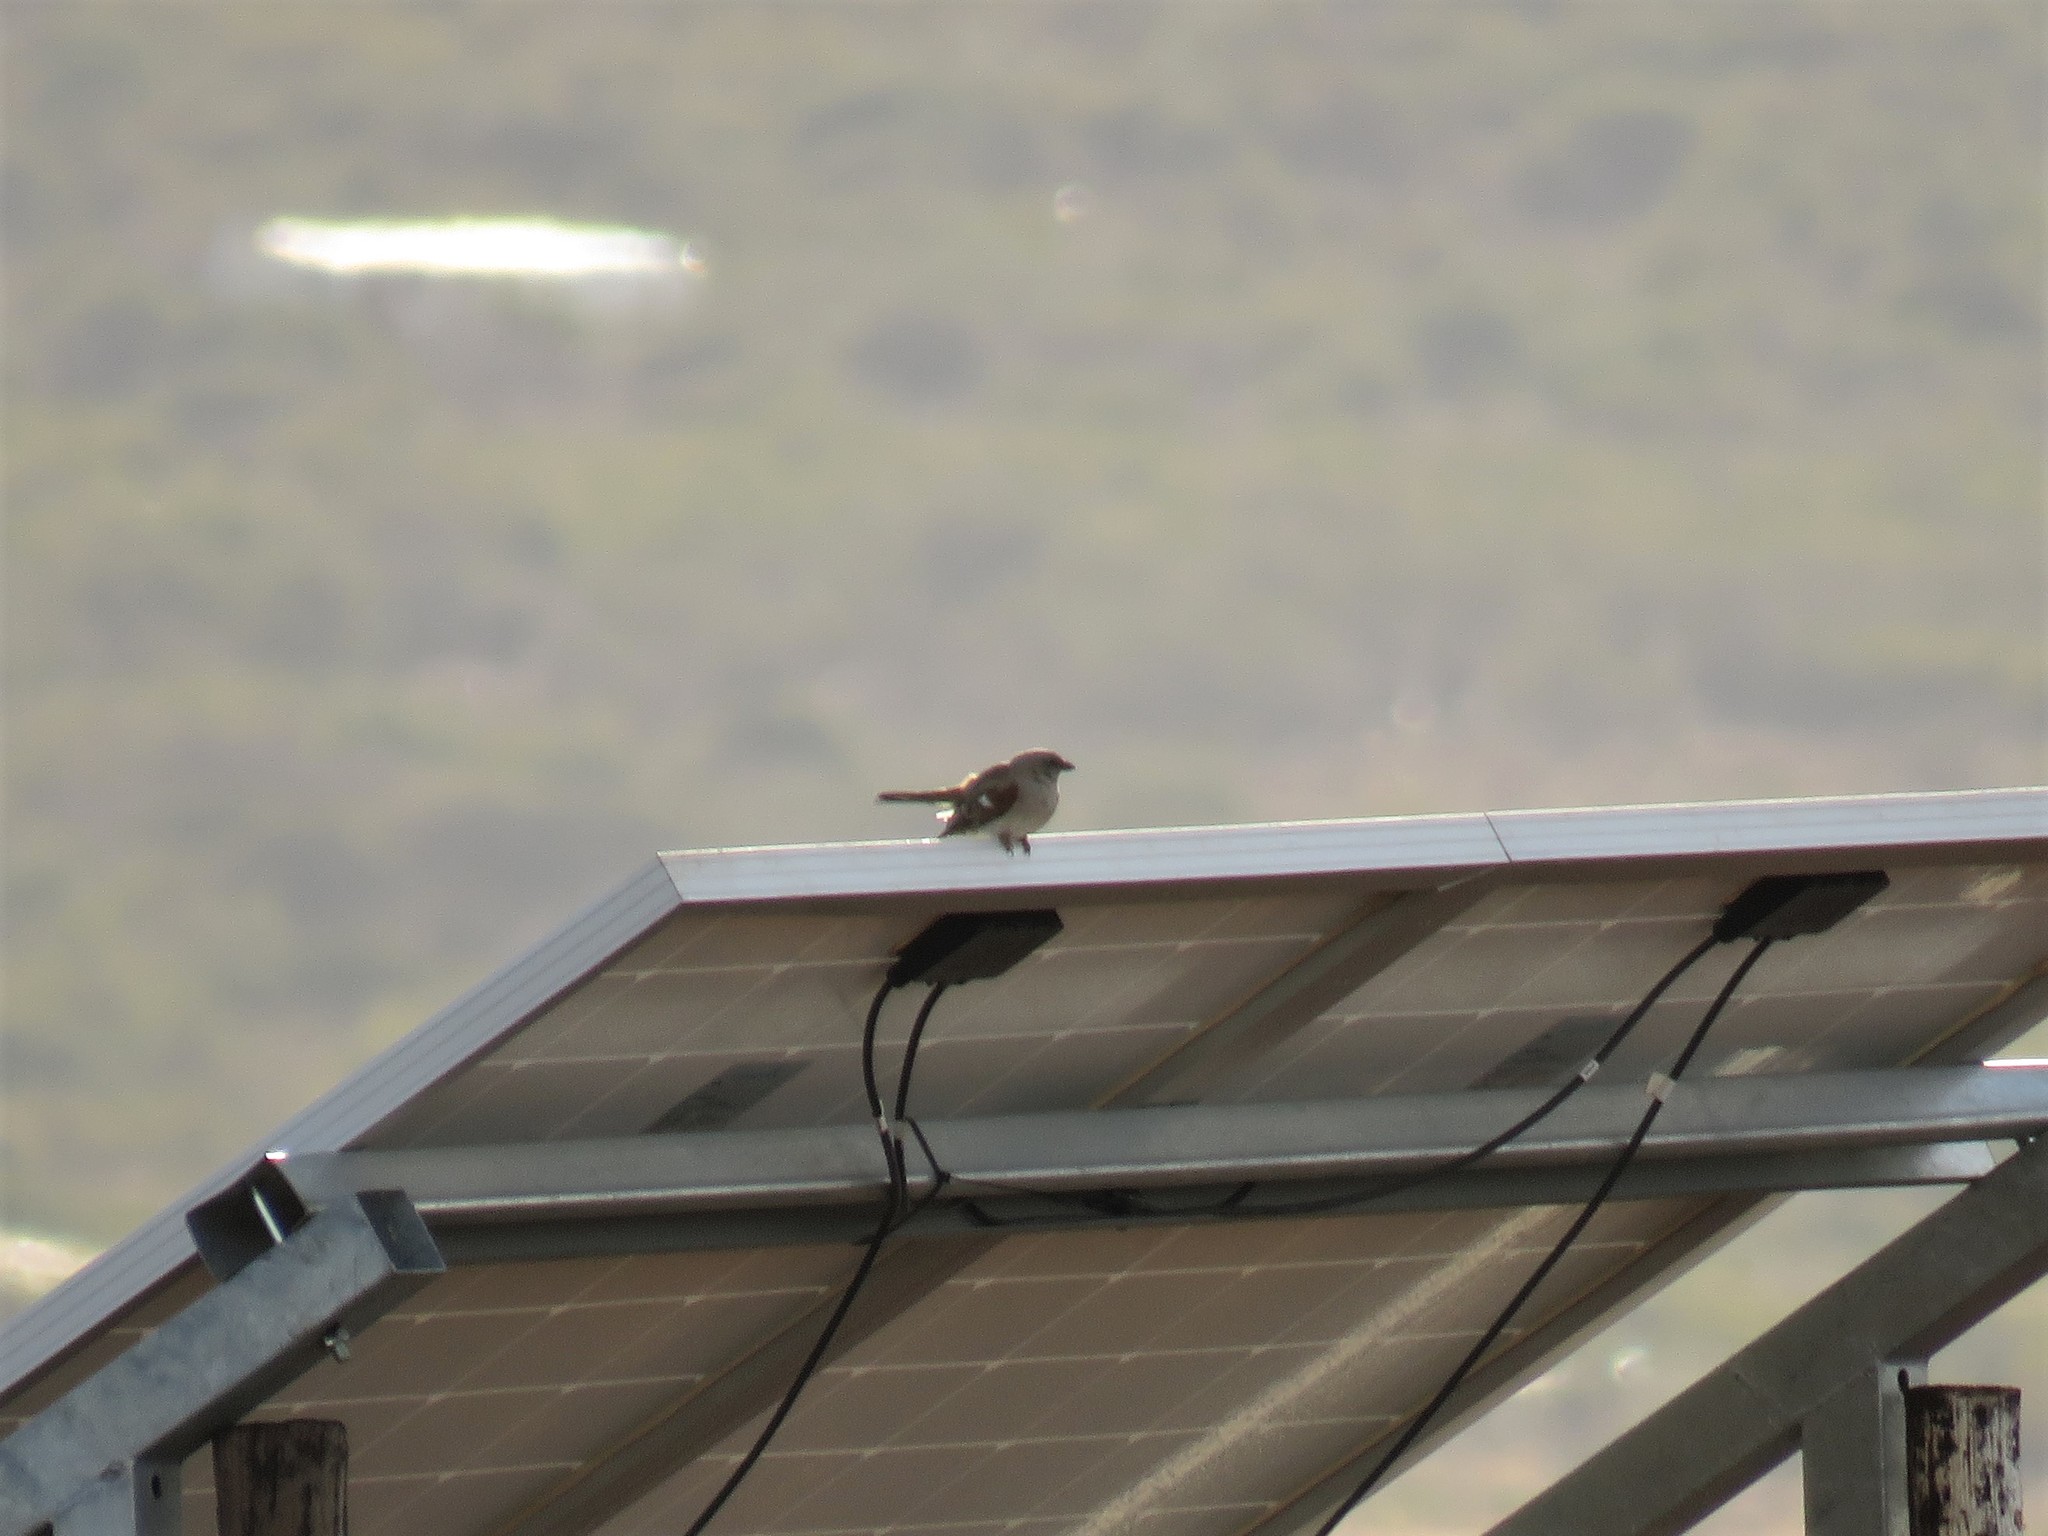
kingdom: Animalia
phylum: Chordata
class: Aves
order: Passeriformes
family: Passeridae
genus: Passer
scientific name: Passer diffusus
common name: Southern grey-headed sparrow
